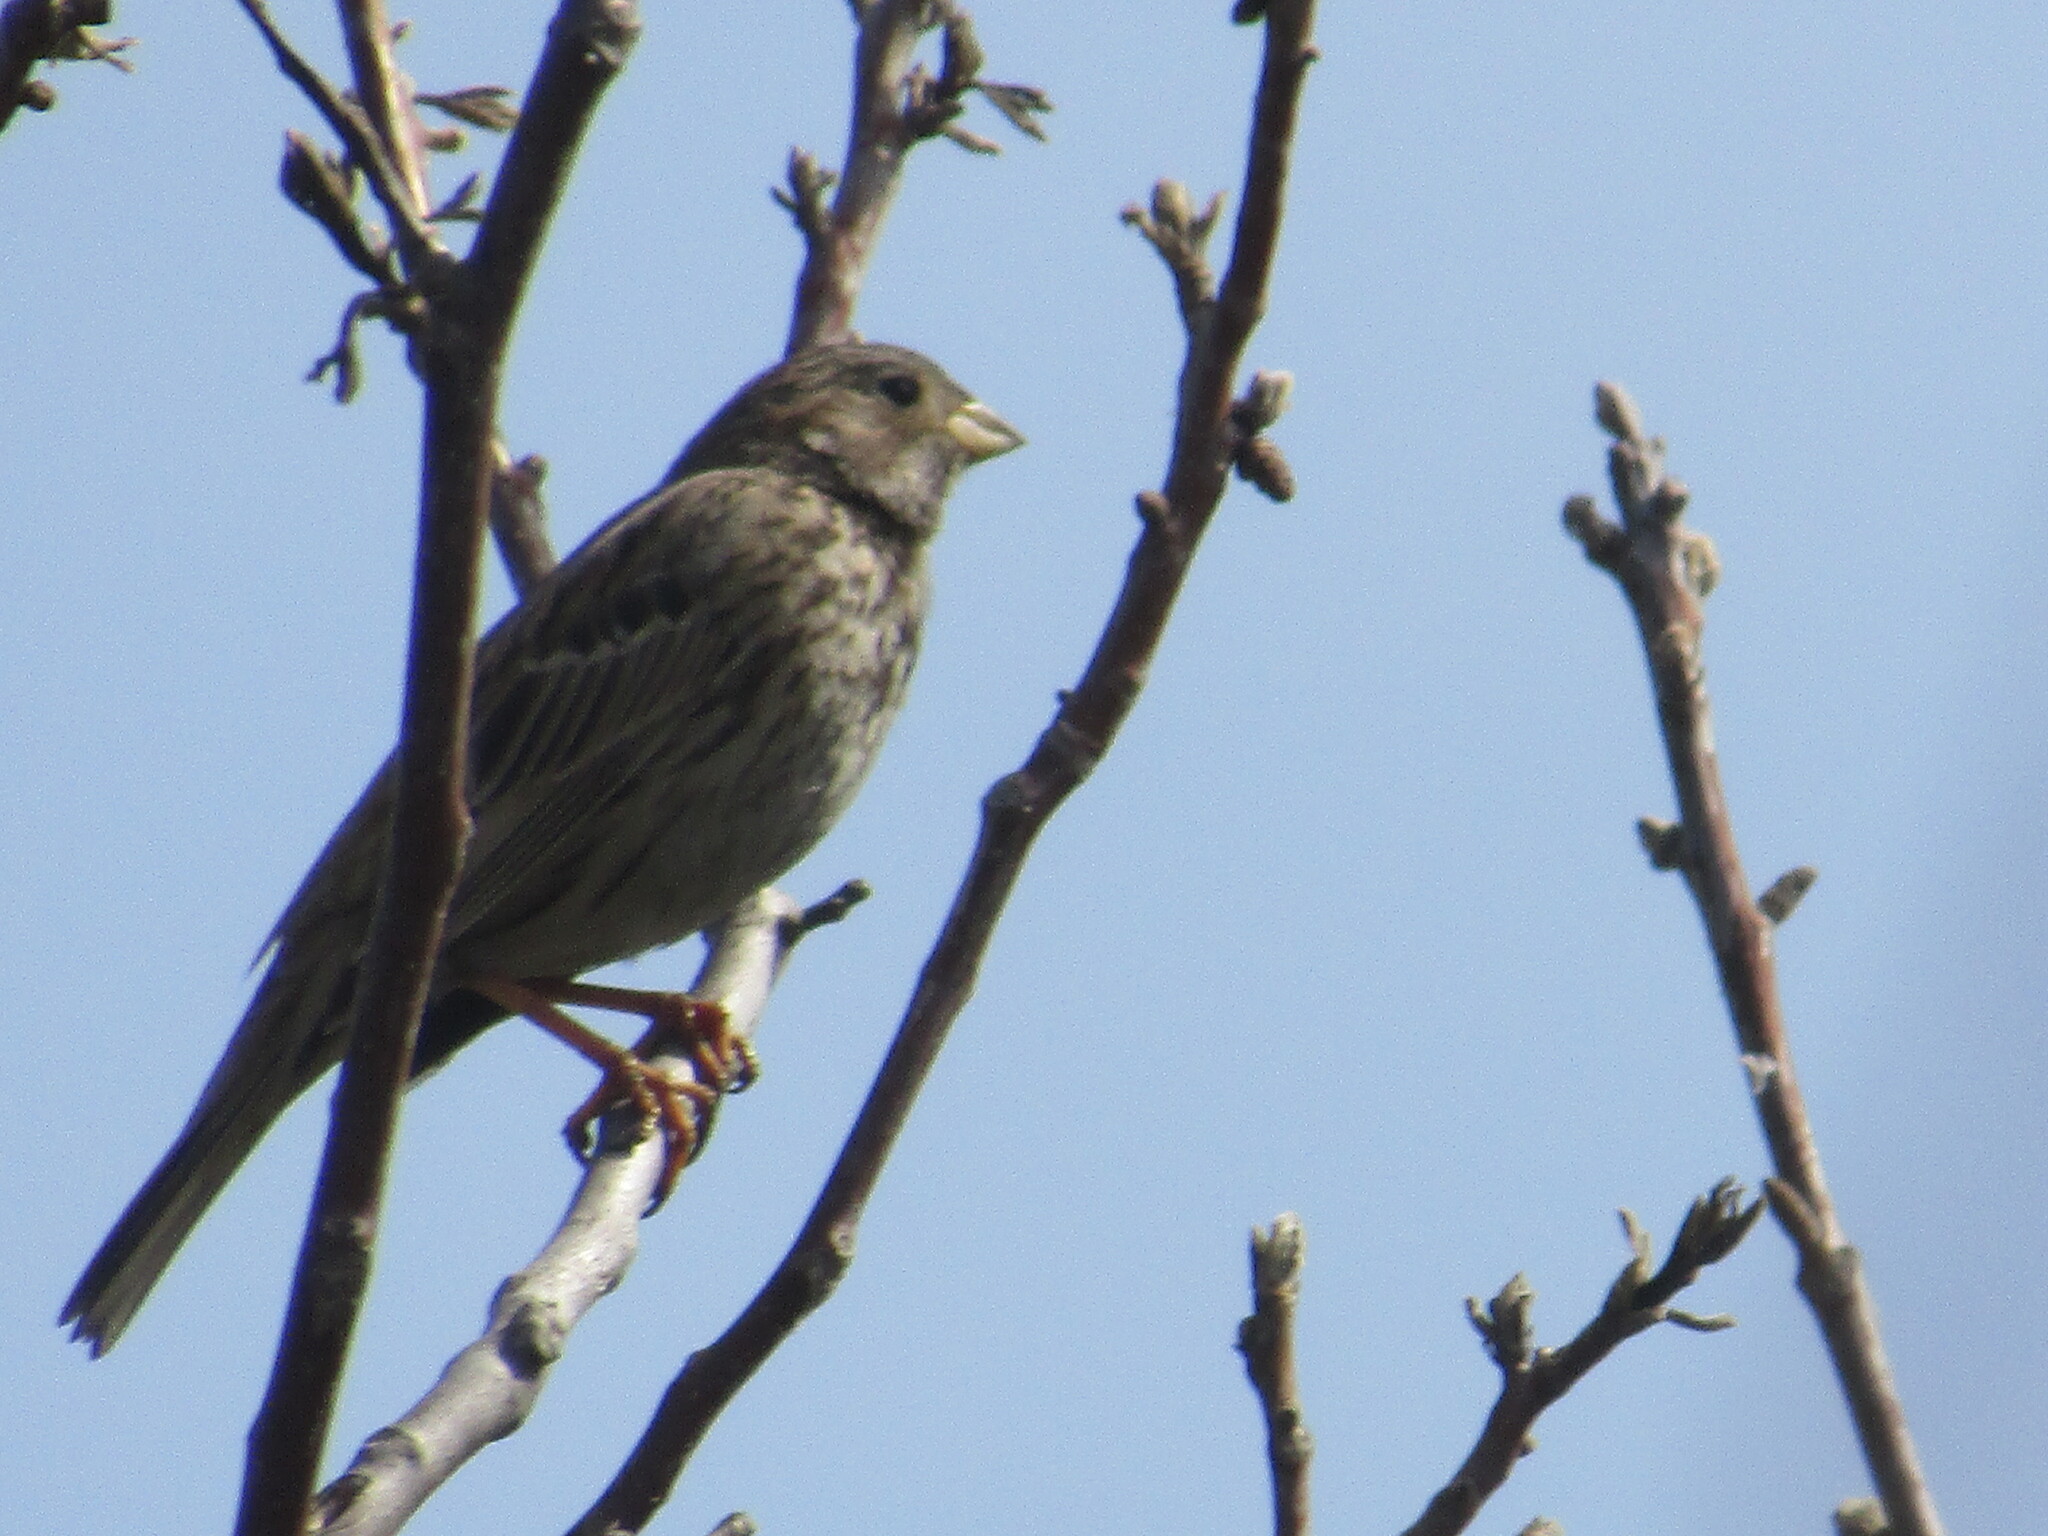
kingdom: Animalia
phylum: Chordata
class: Aves
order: Passeriformes
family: Emberizidae
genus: Emberiza
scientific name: Emberiza calandra
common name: Corn bunting
